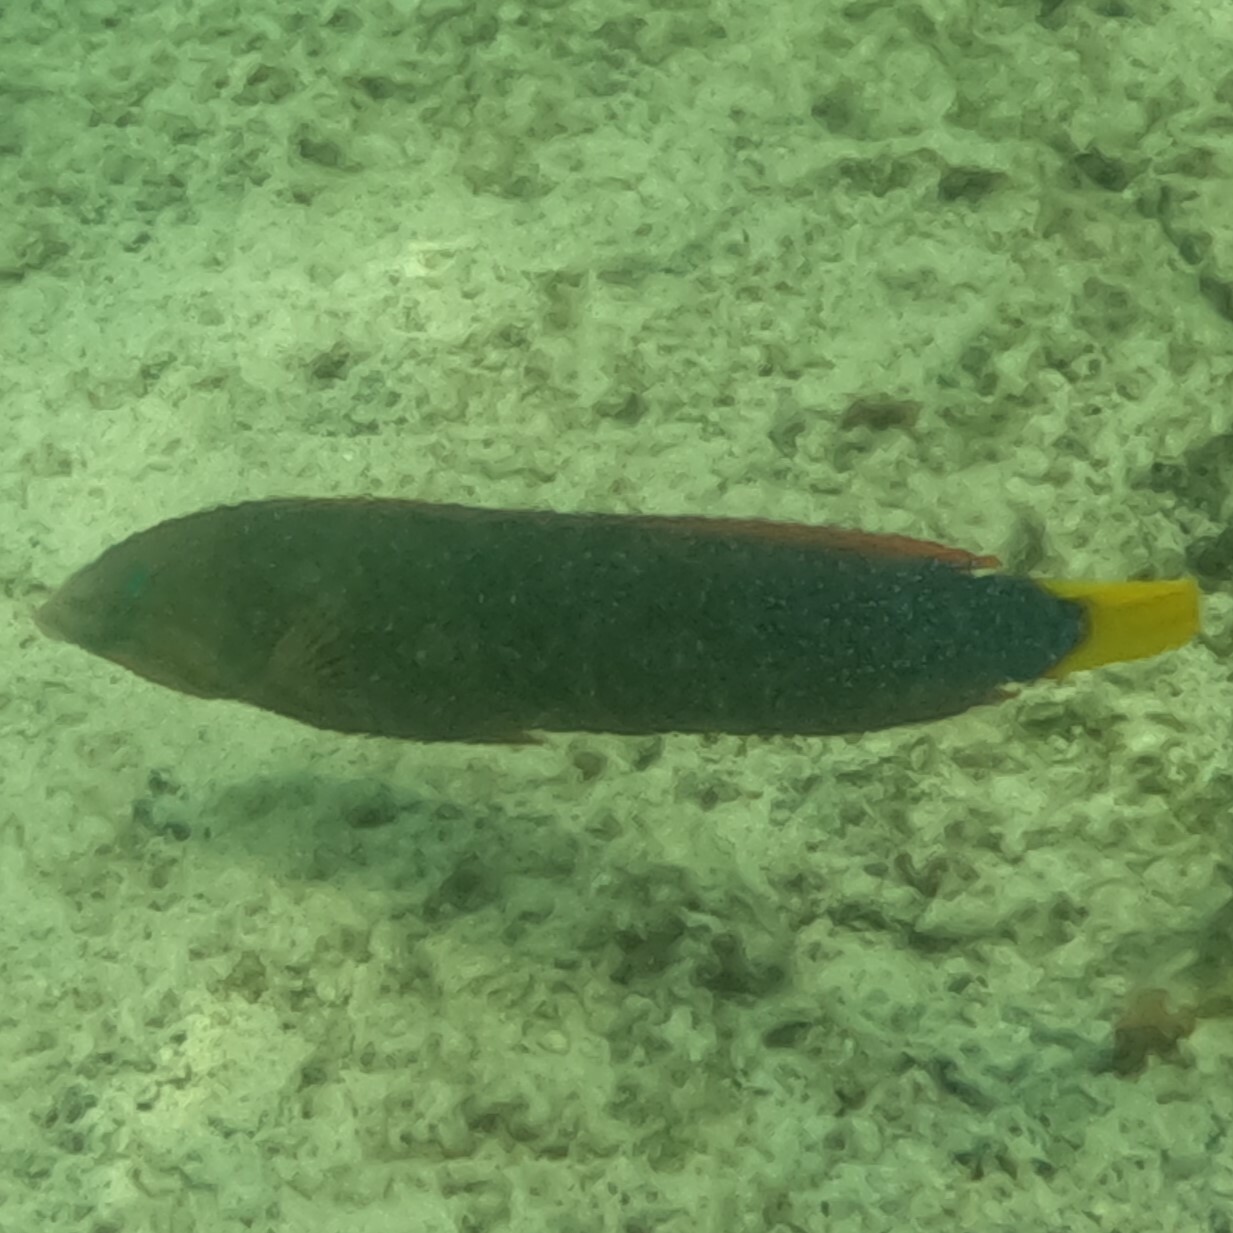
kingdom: Animalia
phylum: Chordata
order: Perciformes
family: Labridae
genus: Coris
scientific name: Coris gaimard
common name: Yellowtail coris
